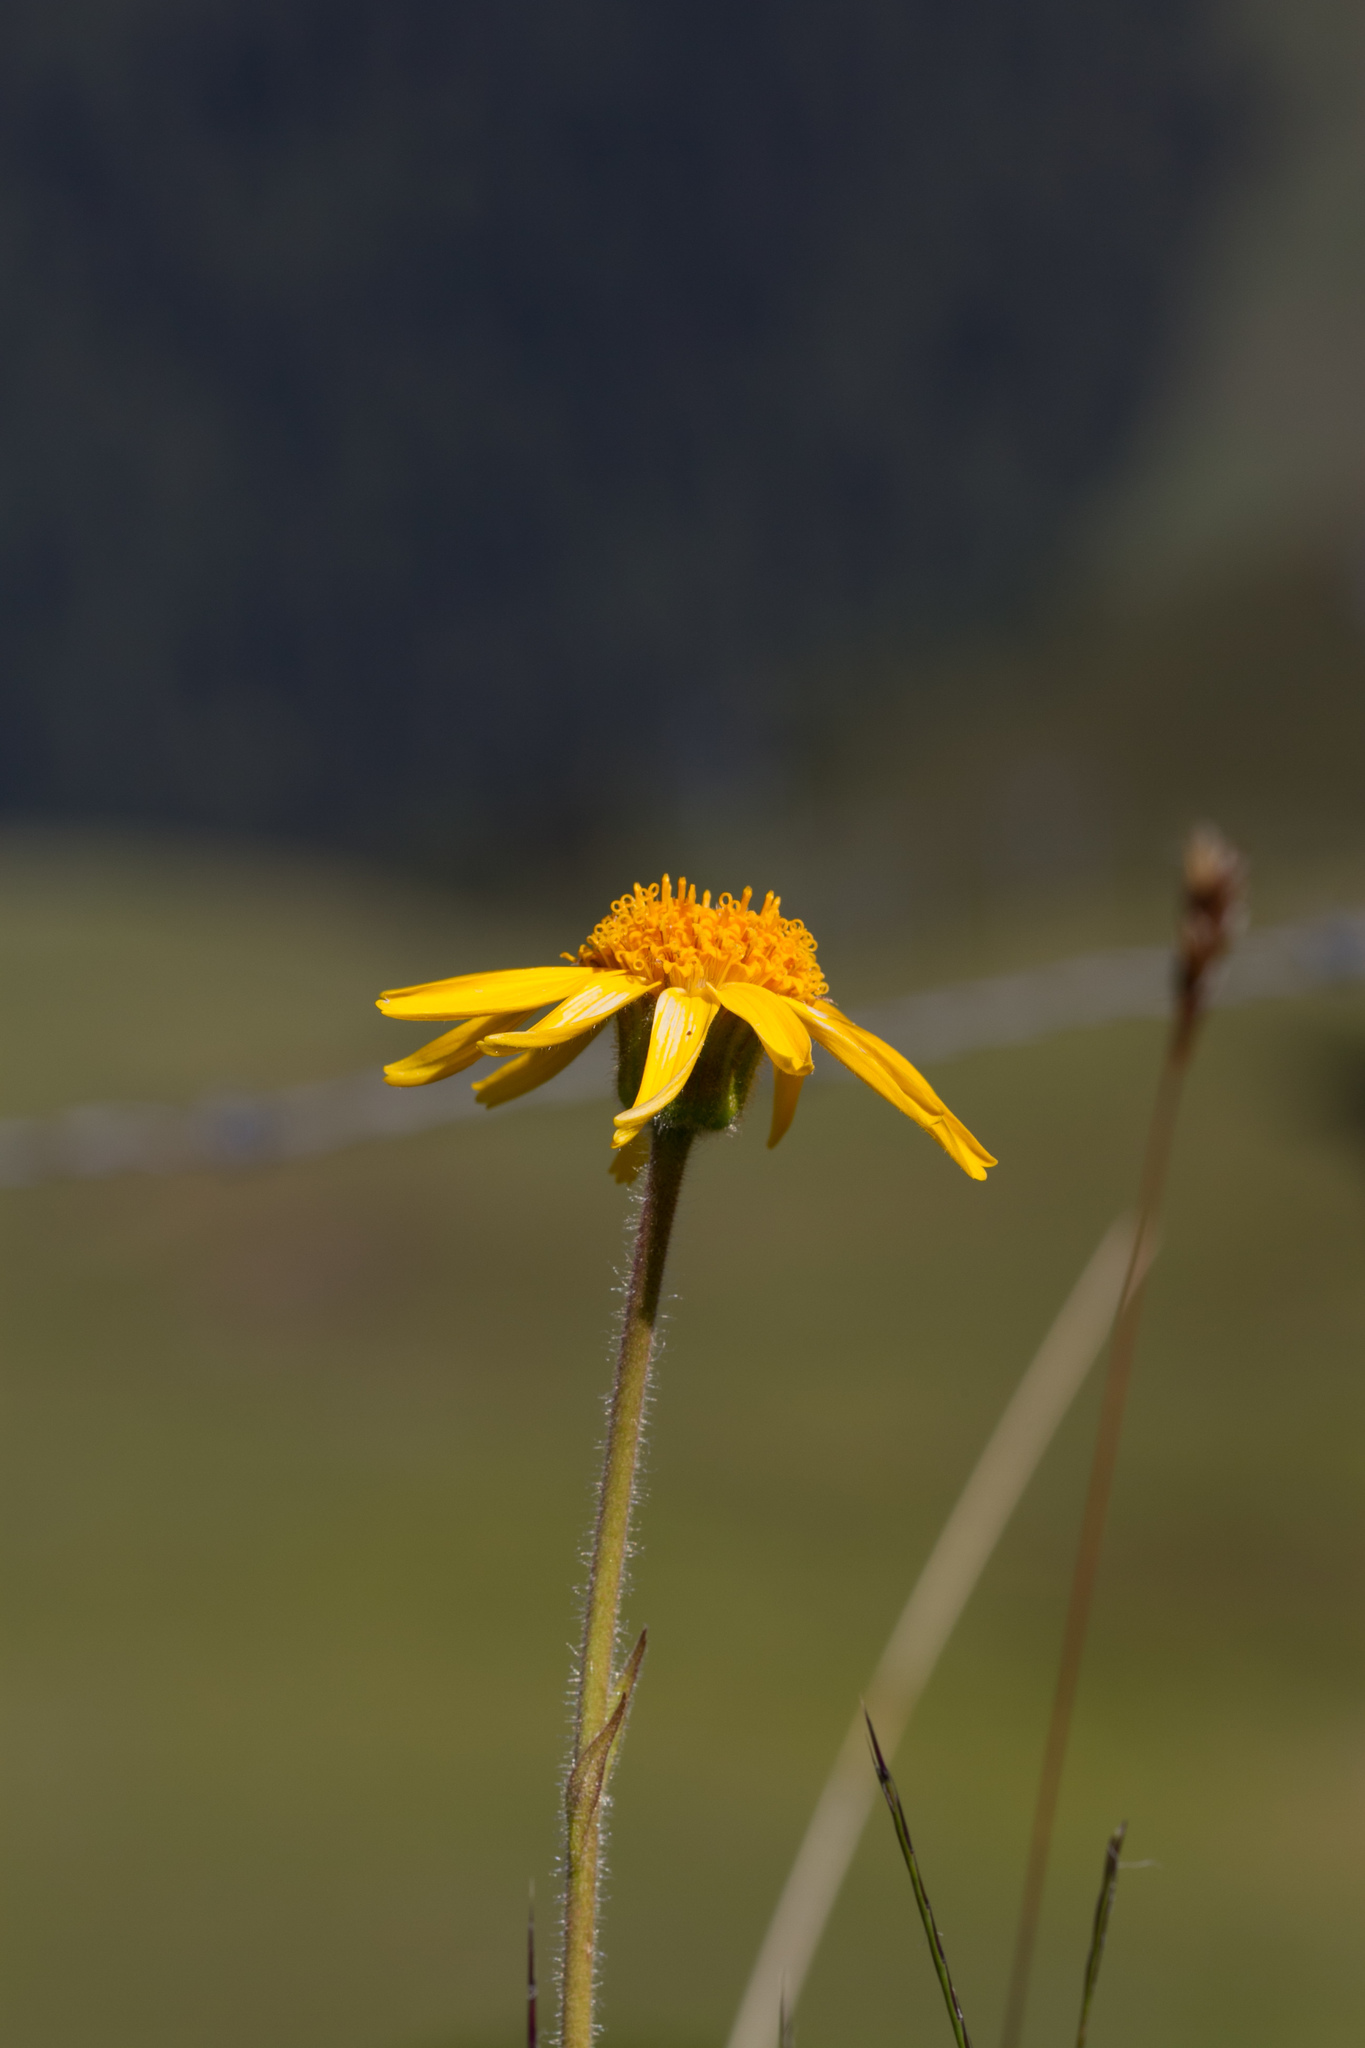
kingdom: Plantae
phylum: Tracheophyta
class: Magnoliopsida
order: Asterales
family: Asteraceae
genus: Arnica
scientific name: Arnica montana
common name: Leopard's bane
